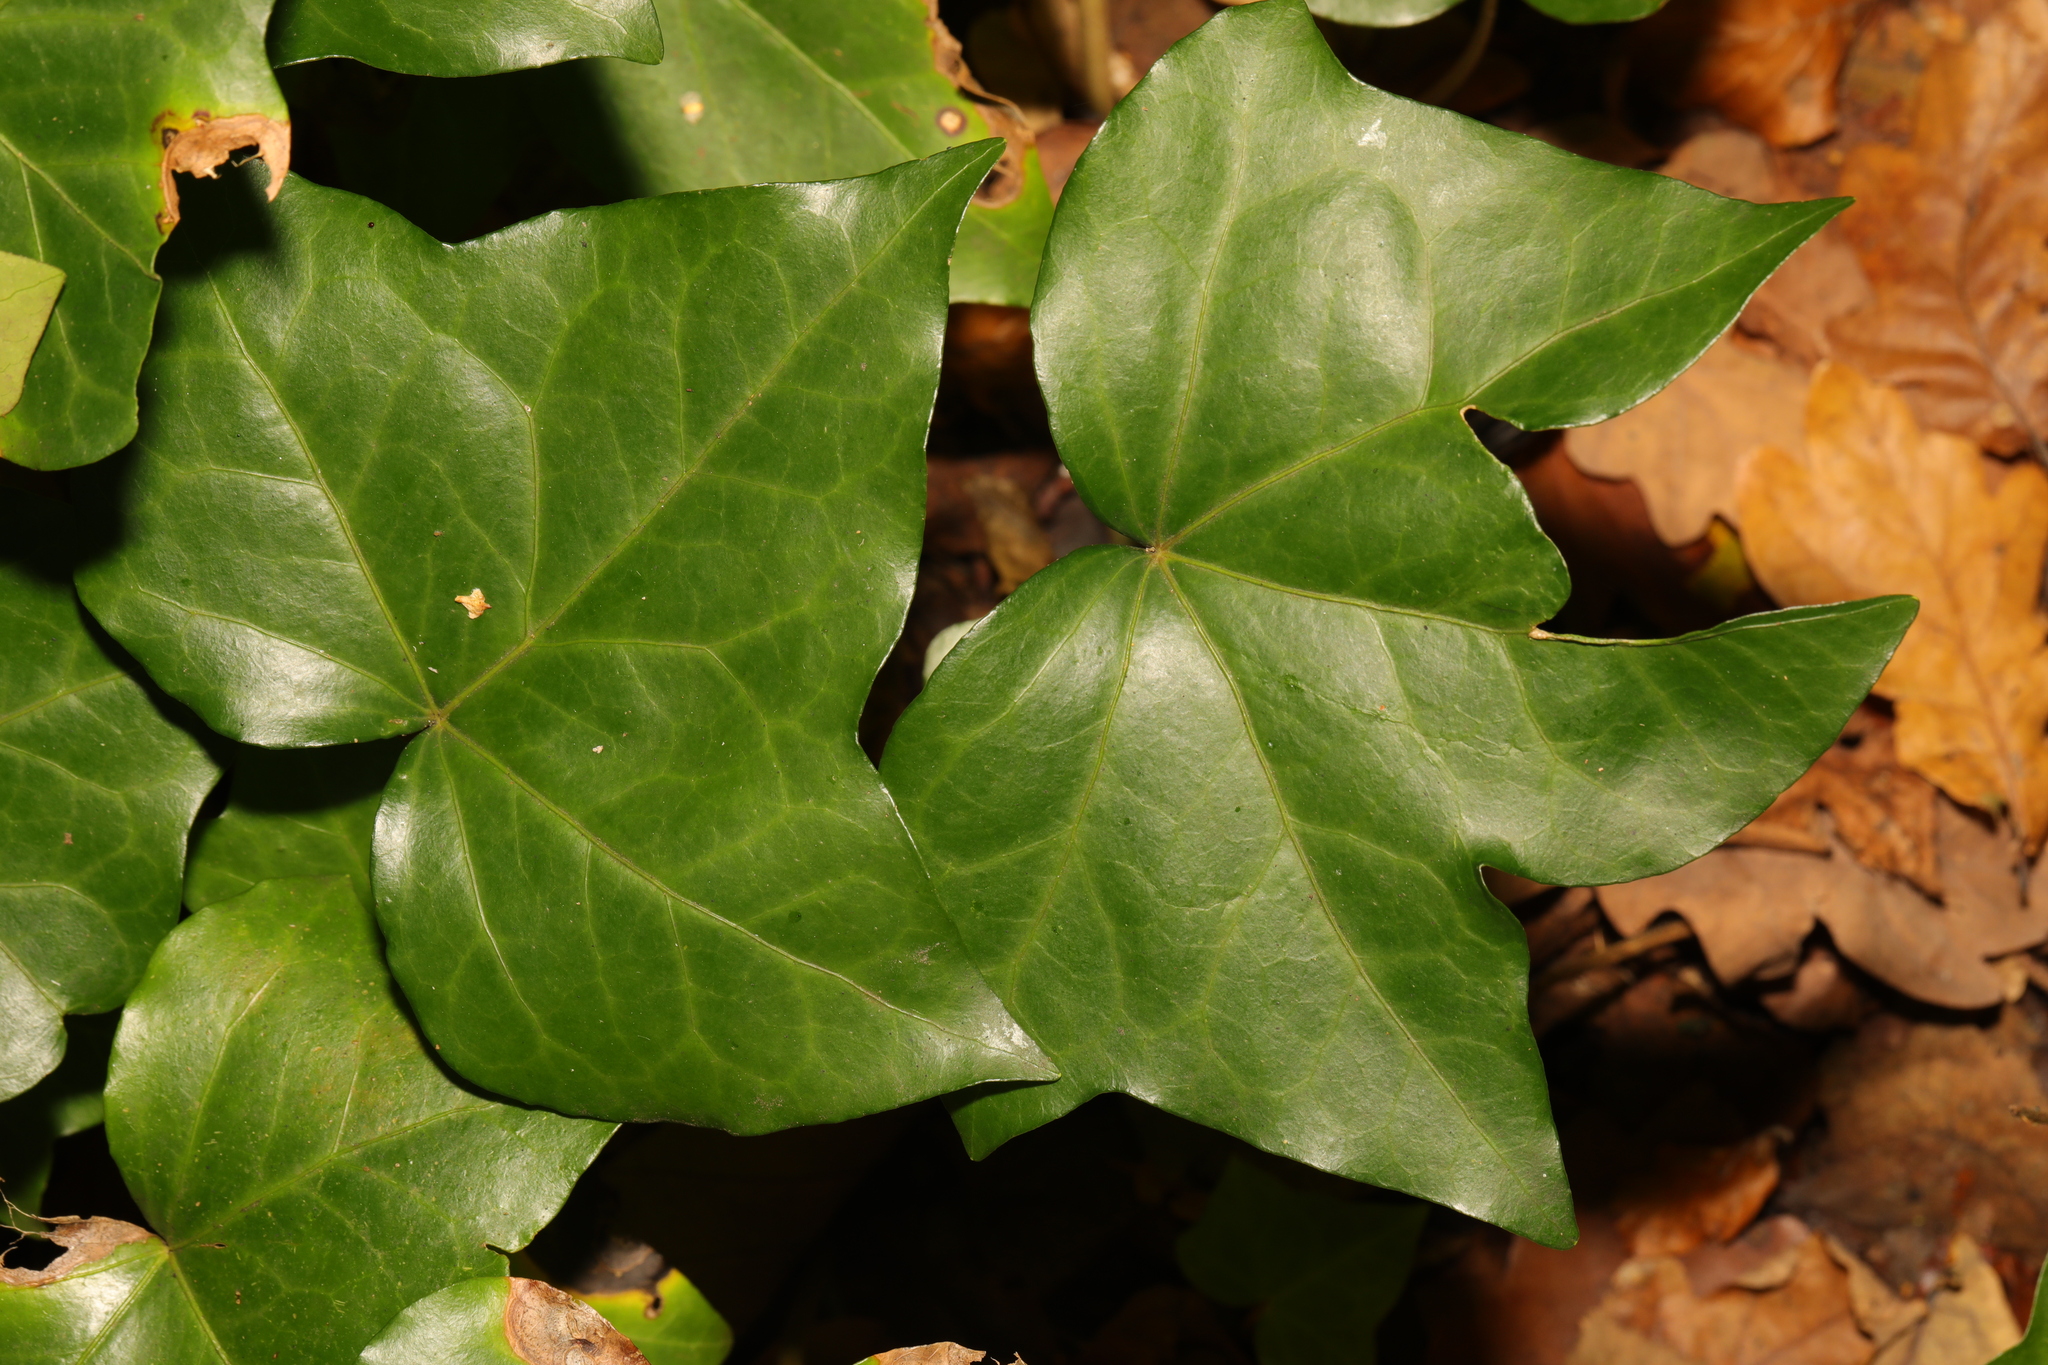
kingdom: Plantae
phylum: Tracheophyta
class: Magnoliopsida
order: Apiales
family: Araliaceae
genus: Hedera
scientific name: Hedera helix
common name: Ivy
